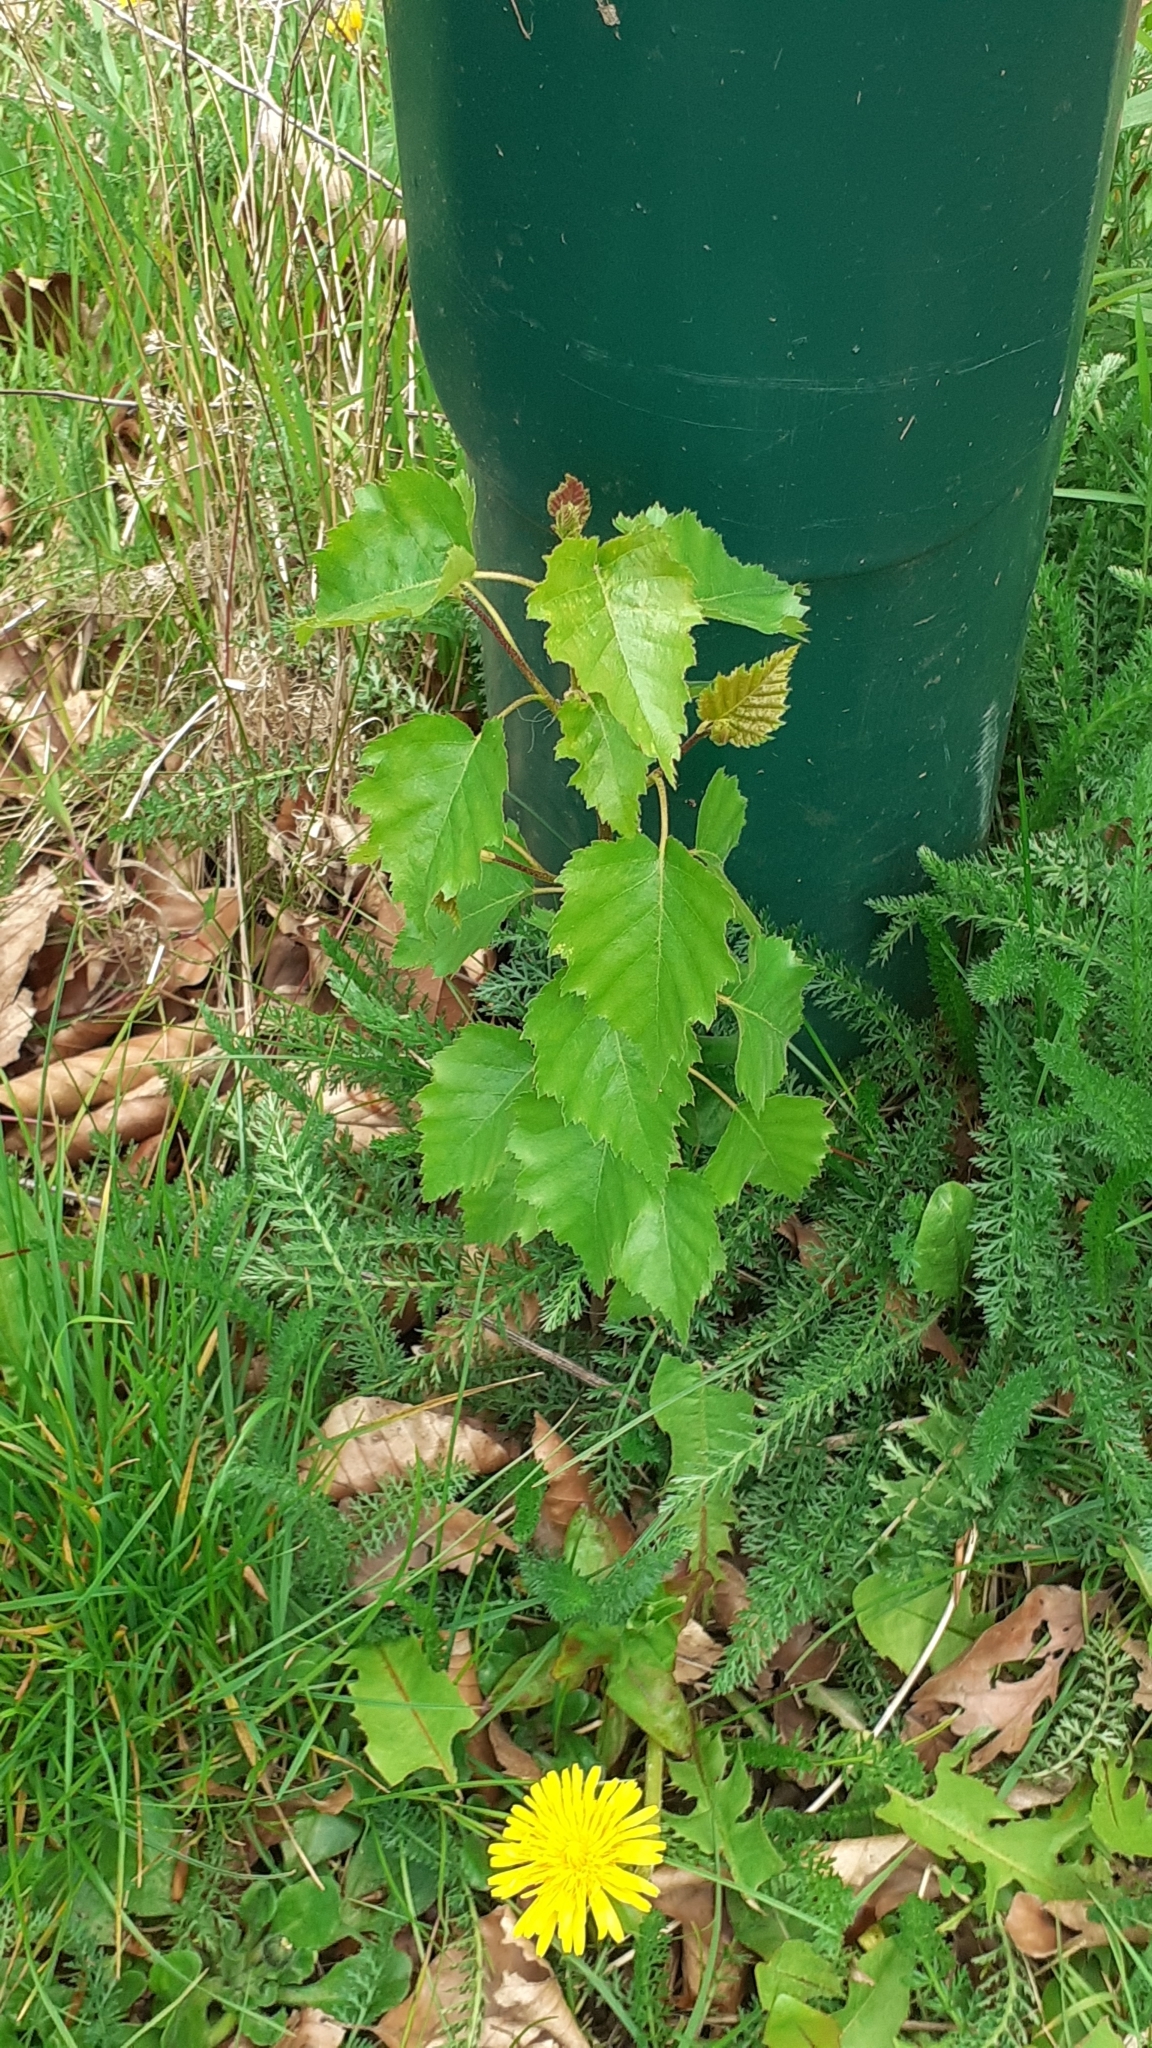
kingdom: Plantae
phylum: Tracheophyta
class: Magnoliopsida
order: Fagales
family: Betulaceae
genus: Betula
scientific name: Betula pendula
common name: Silver birch
